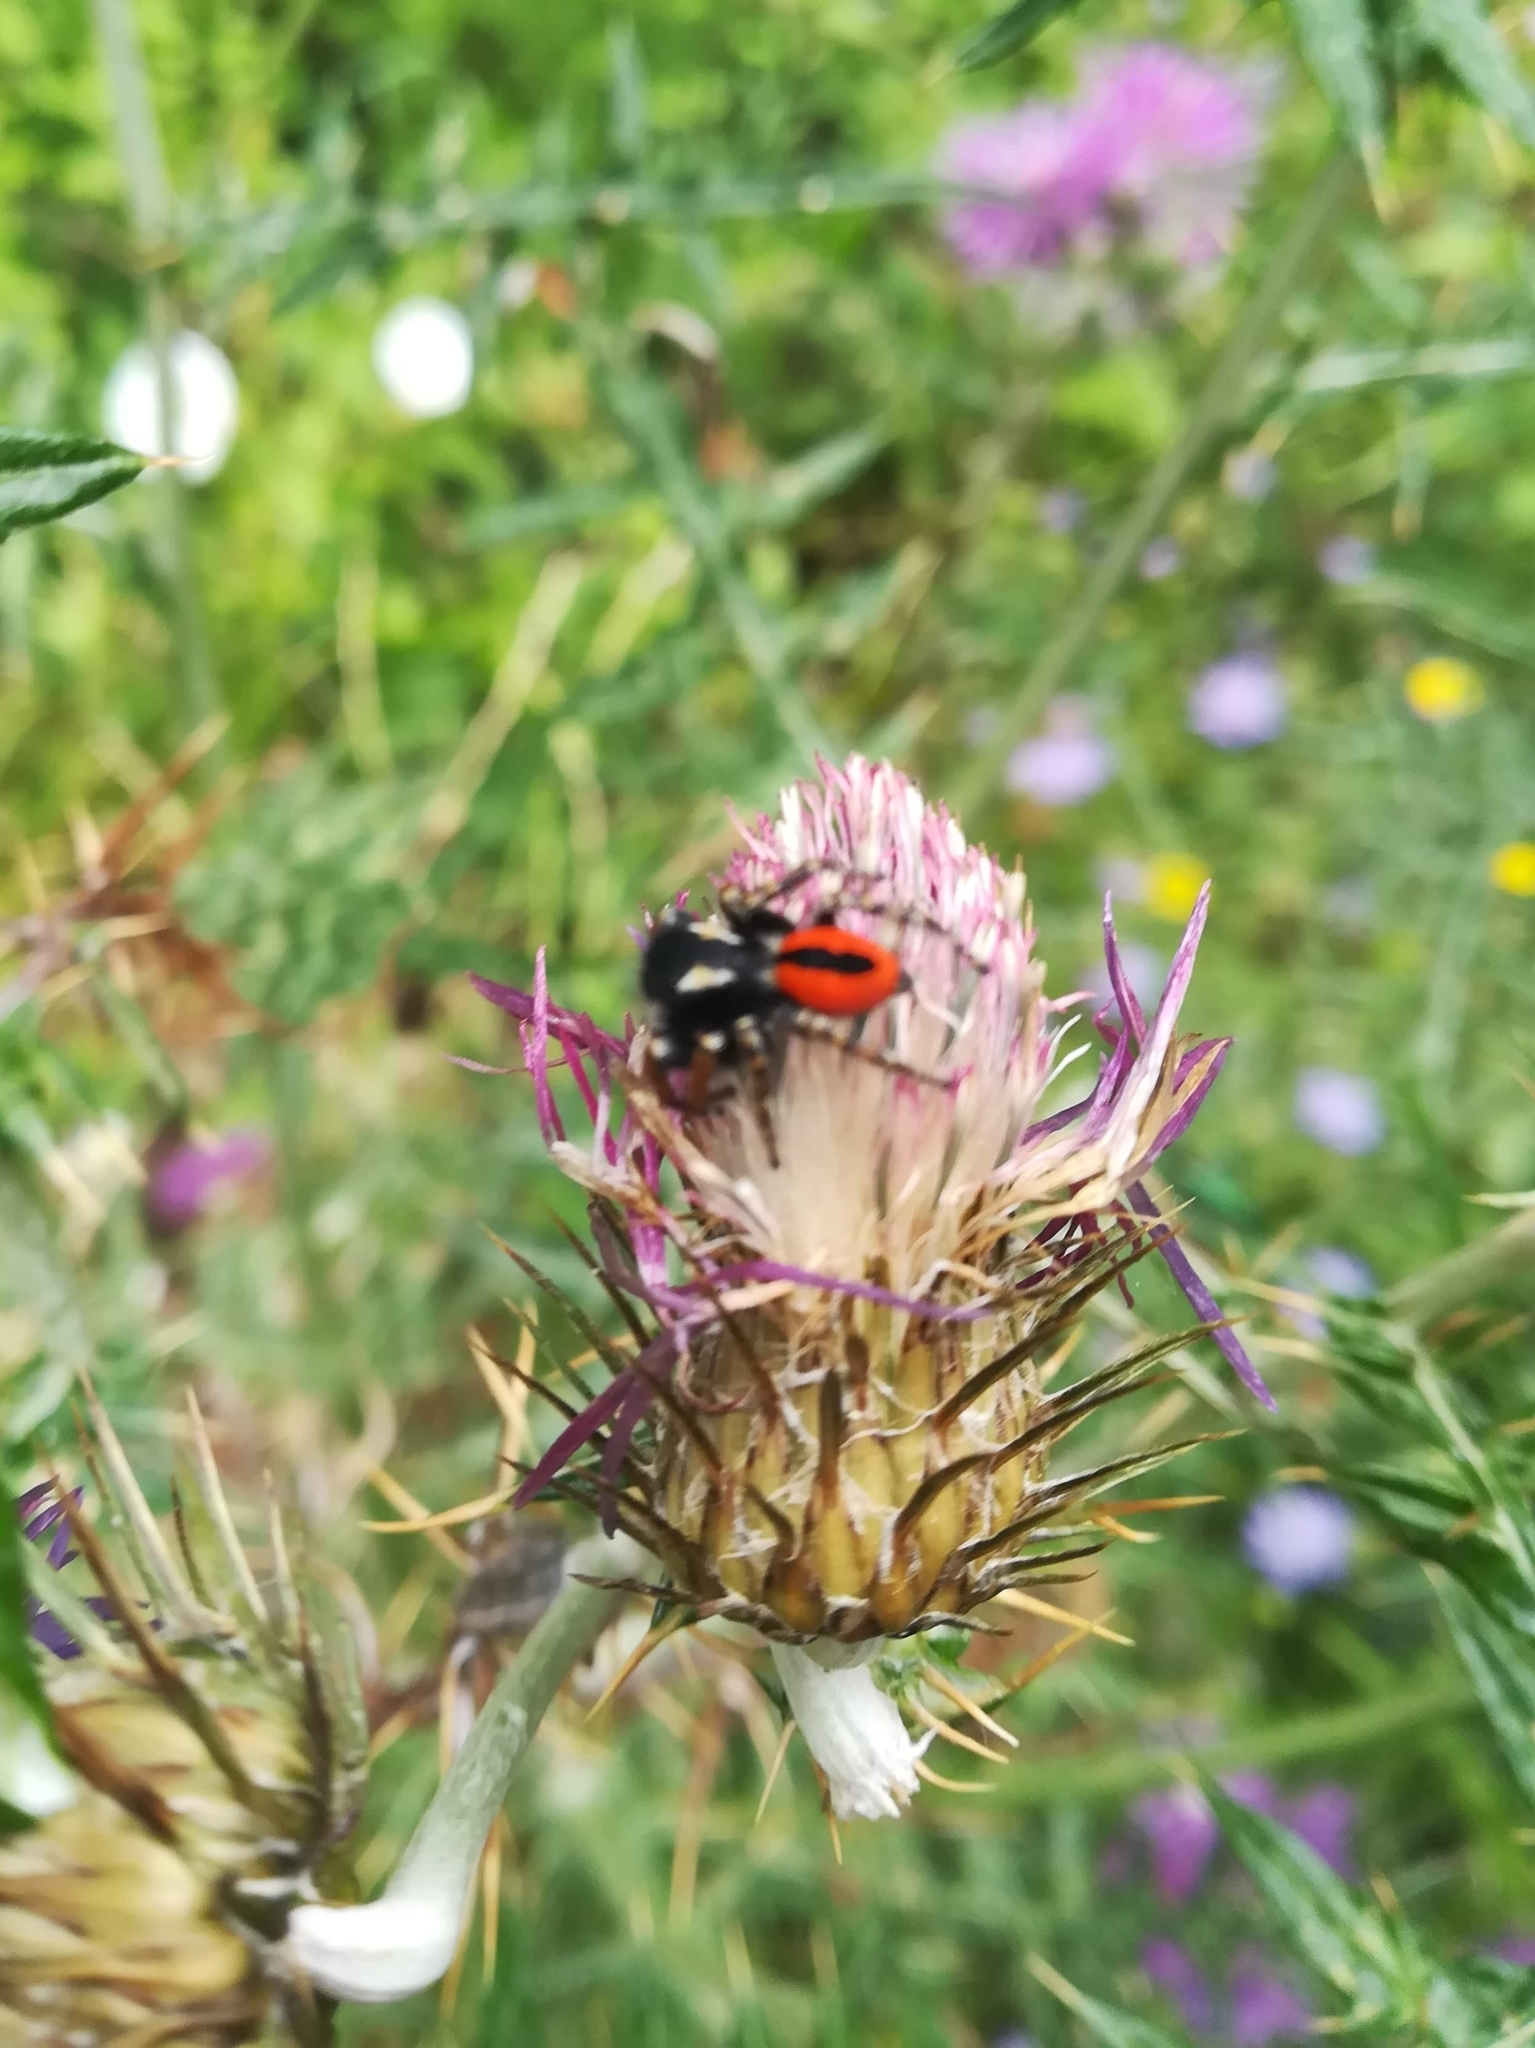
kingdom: Animalia
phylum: Arthropoda
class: Arachnida
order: Araneae
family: Salticidae
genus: Philaeus
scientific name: Philaeus chrysops
